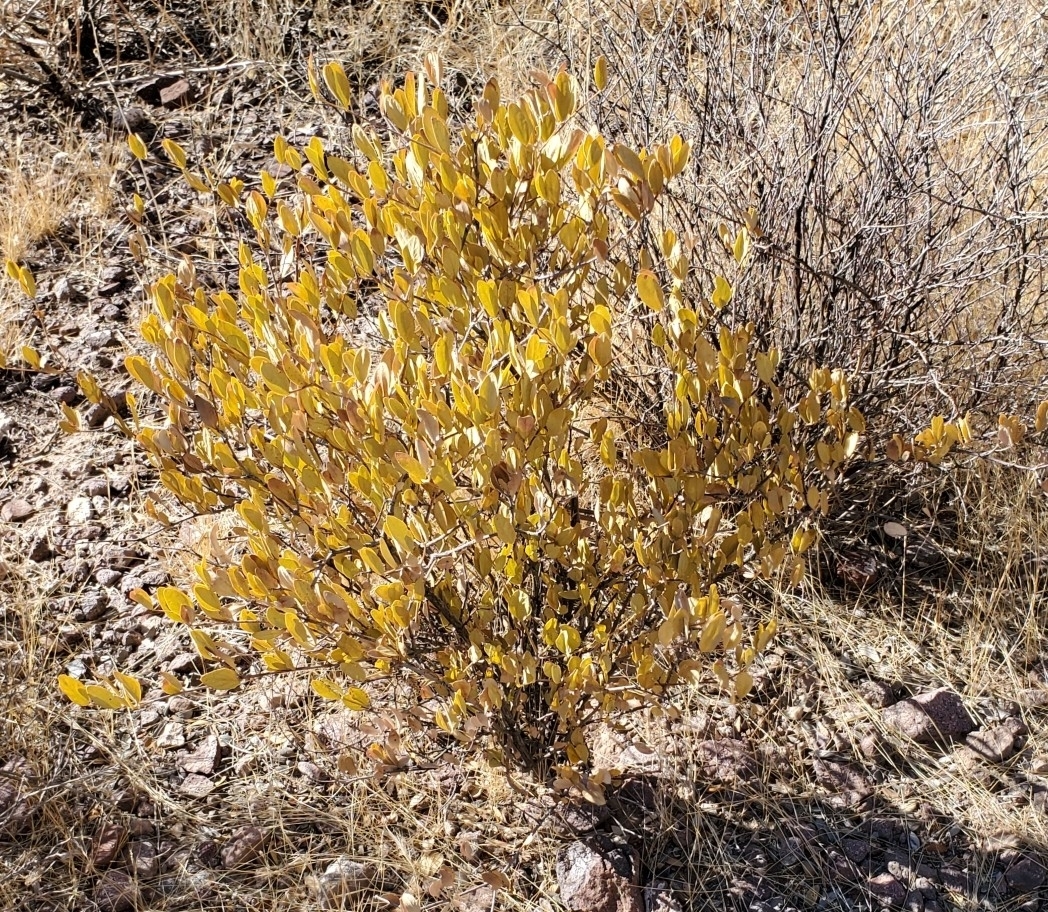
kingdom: Plantae
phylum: Tracheophyta
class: Magnoliopsida
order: Caryophyllales
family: Simmondsiaceae
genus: Simmondsia
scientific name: Simmondsia chinensis
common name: Jojoba
